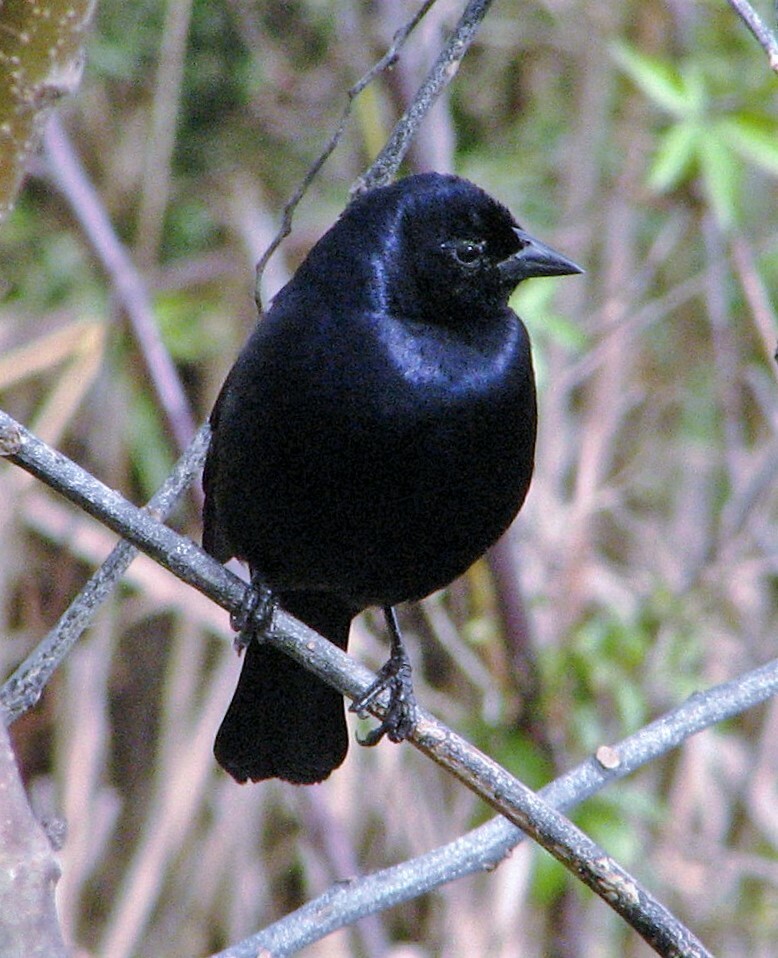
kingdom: Animalia
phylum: Chordata
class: Aves
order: Passeriformes
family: Icteridae
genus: Molothrus
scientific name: Molothrus bonariensis
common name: Shiny cowbird
